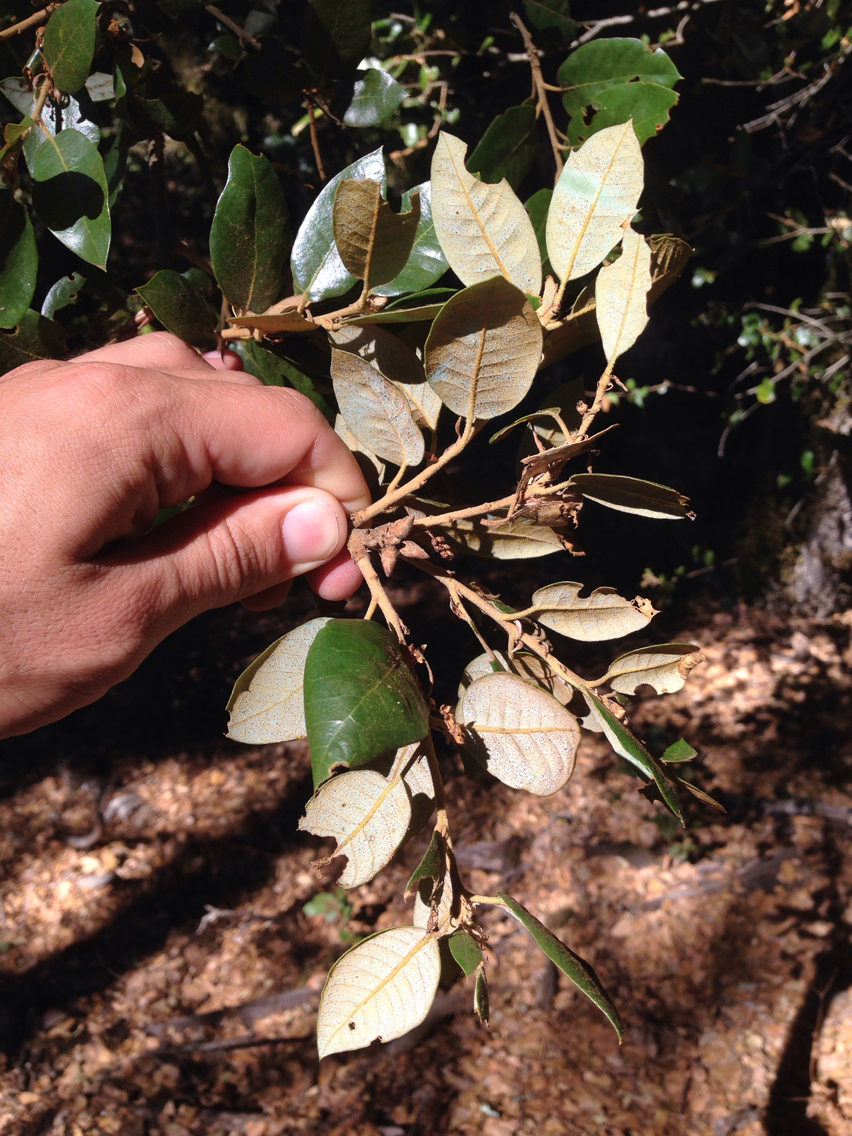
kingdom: Plantae
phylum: Tracheophyta
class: Magnoliopsida
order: Fagales
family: Fagaceae
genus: Quercus
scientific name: Quercus chrysolepis
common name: Canyon live oak
